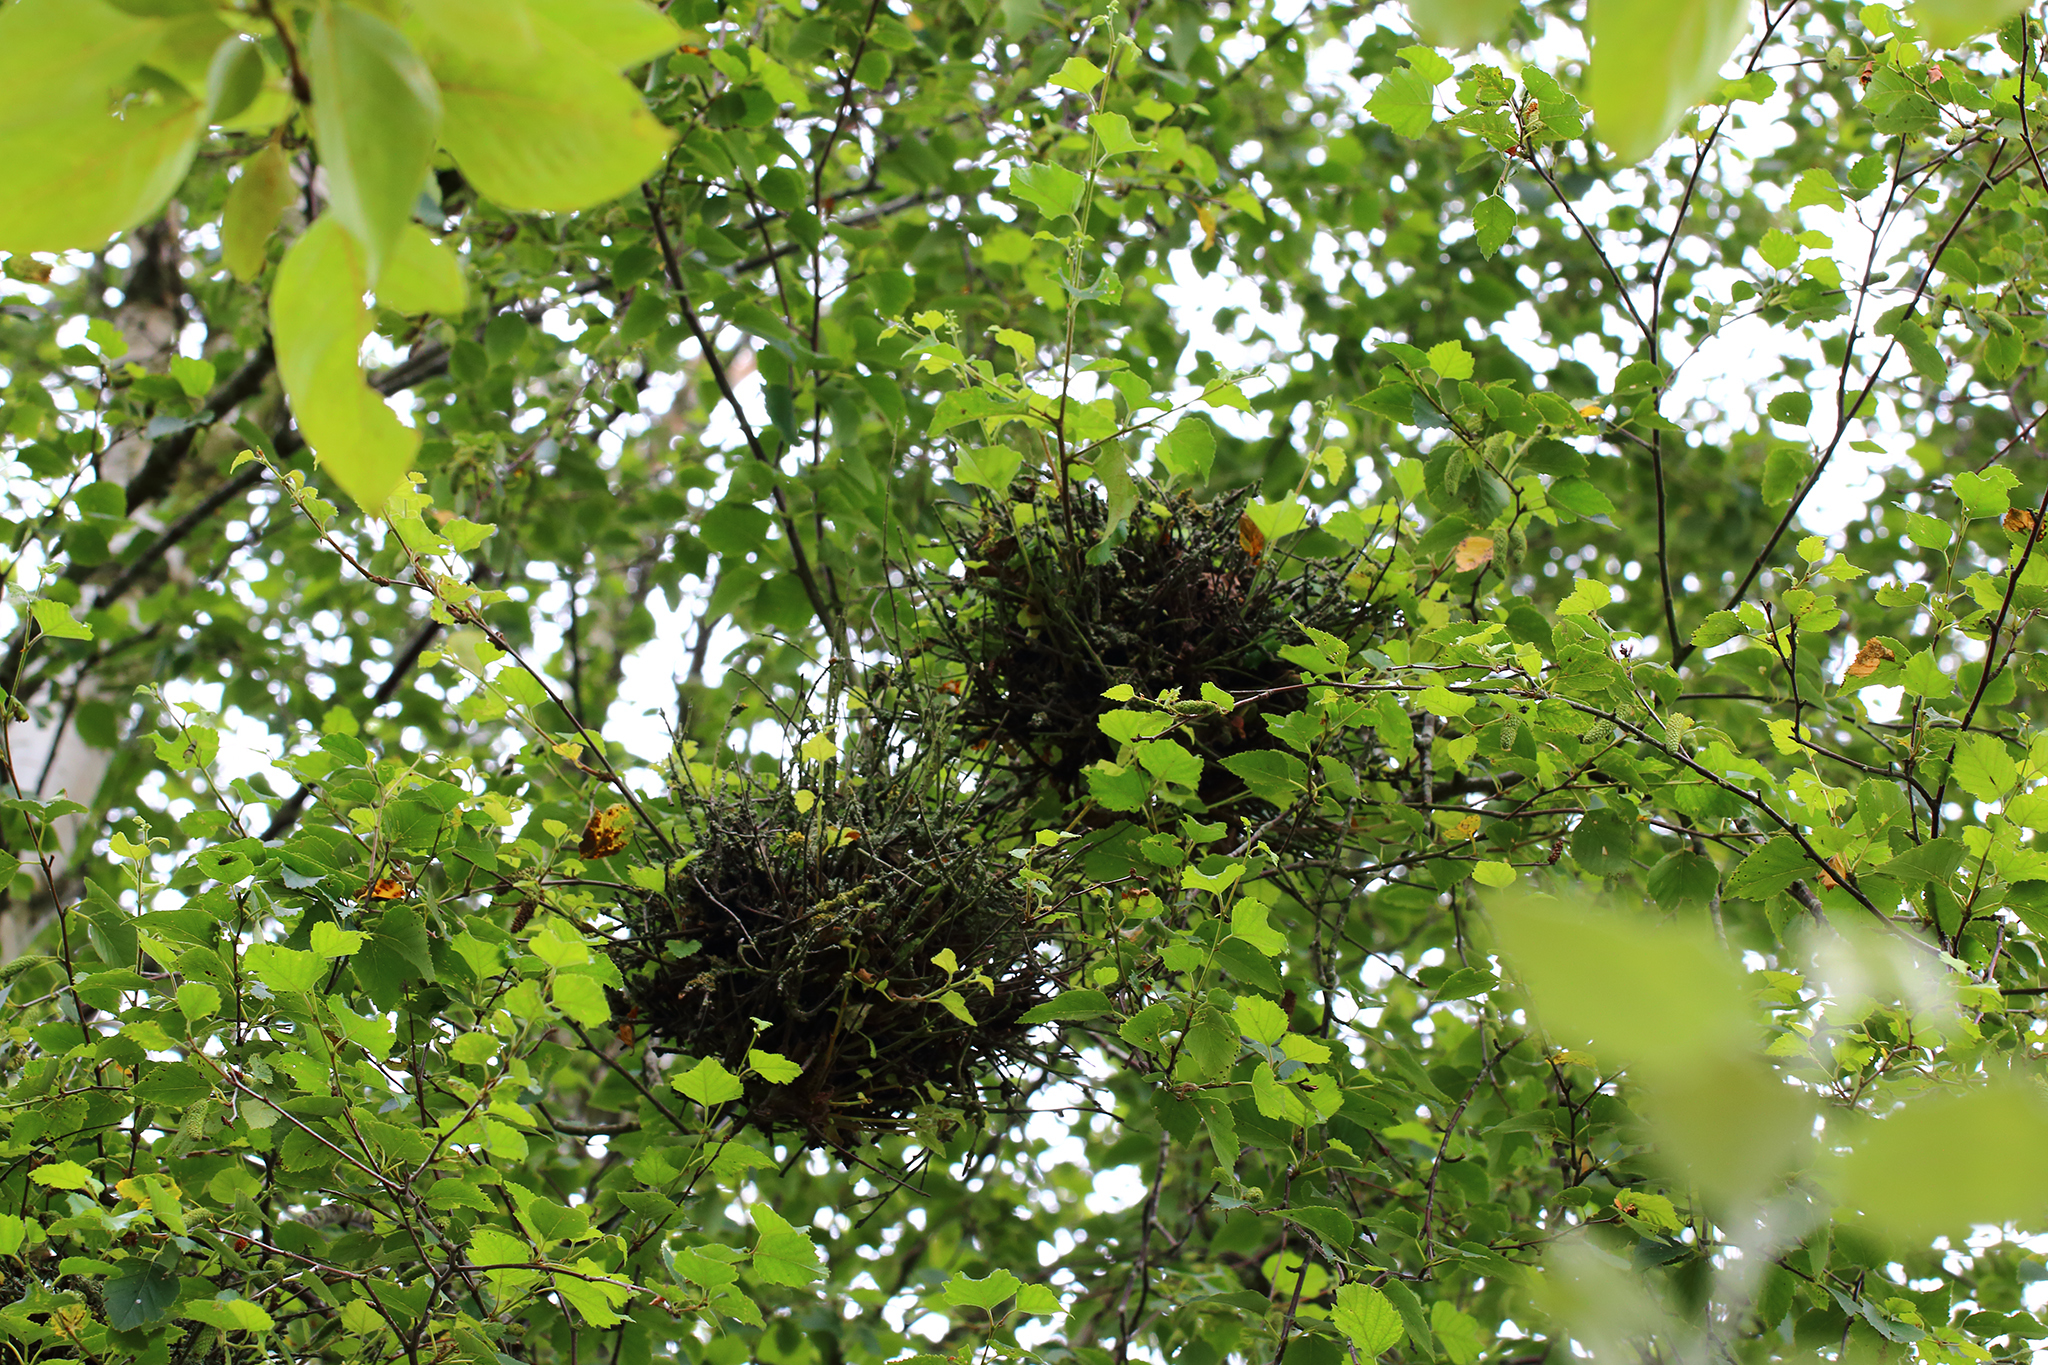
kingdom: Fungi
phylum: Ascomycota
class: Taphrinomycetes
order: Taphrinales
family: Taphrinaceae
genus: Taphrina
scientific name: Taphrina betulina
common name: Birch besom
